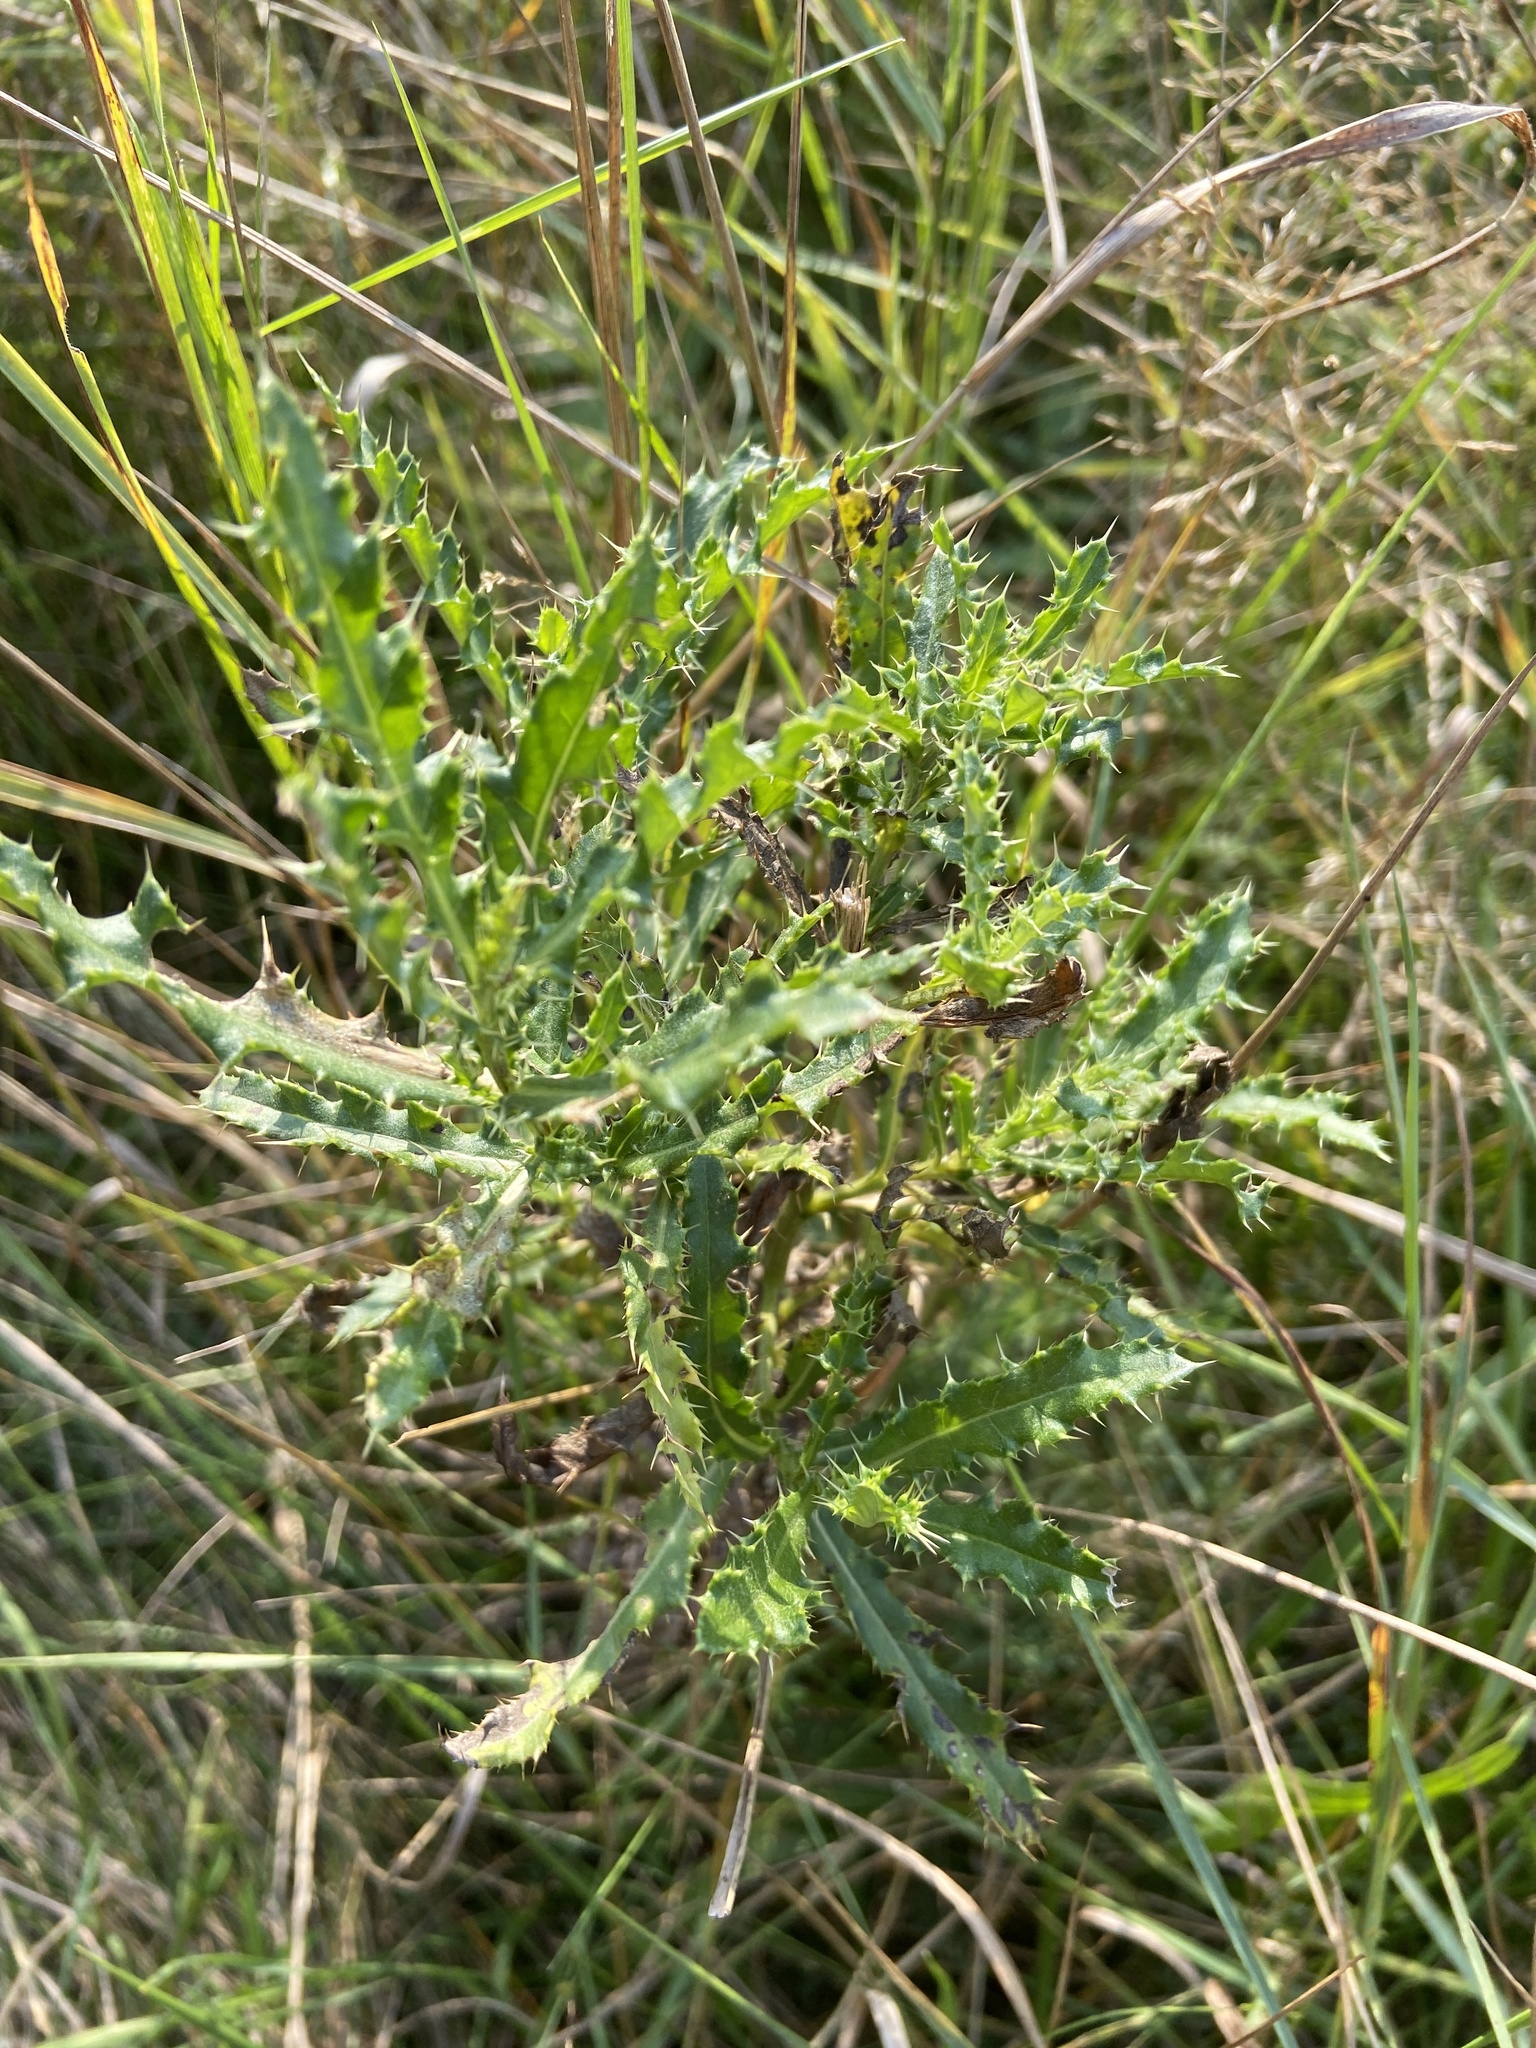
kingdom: Plantae
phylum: Tracheophyta
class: Magnoliopsida
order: Asterales
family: Asteraceae
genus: Cirsium
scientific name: Cirsium arvense
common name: Creeping thistle
